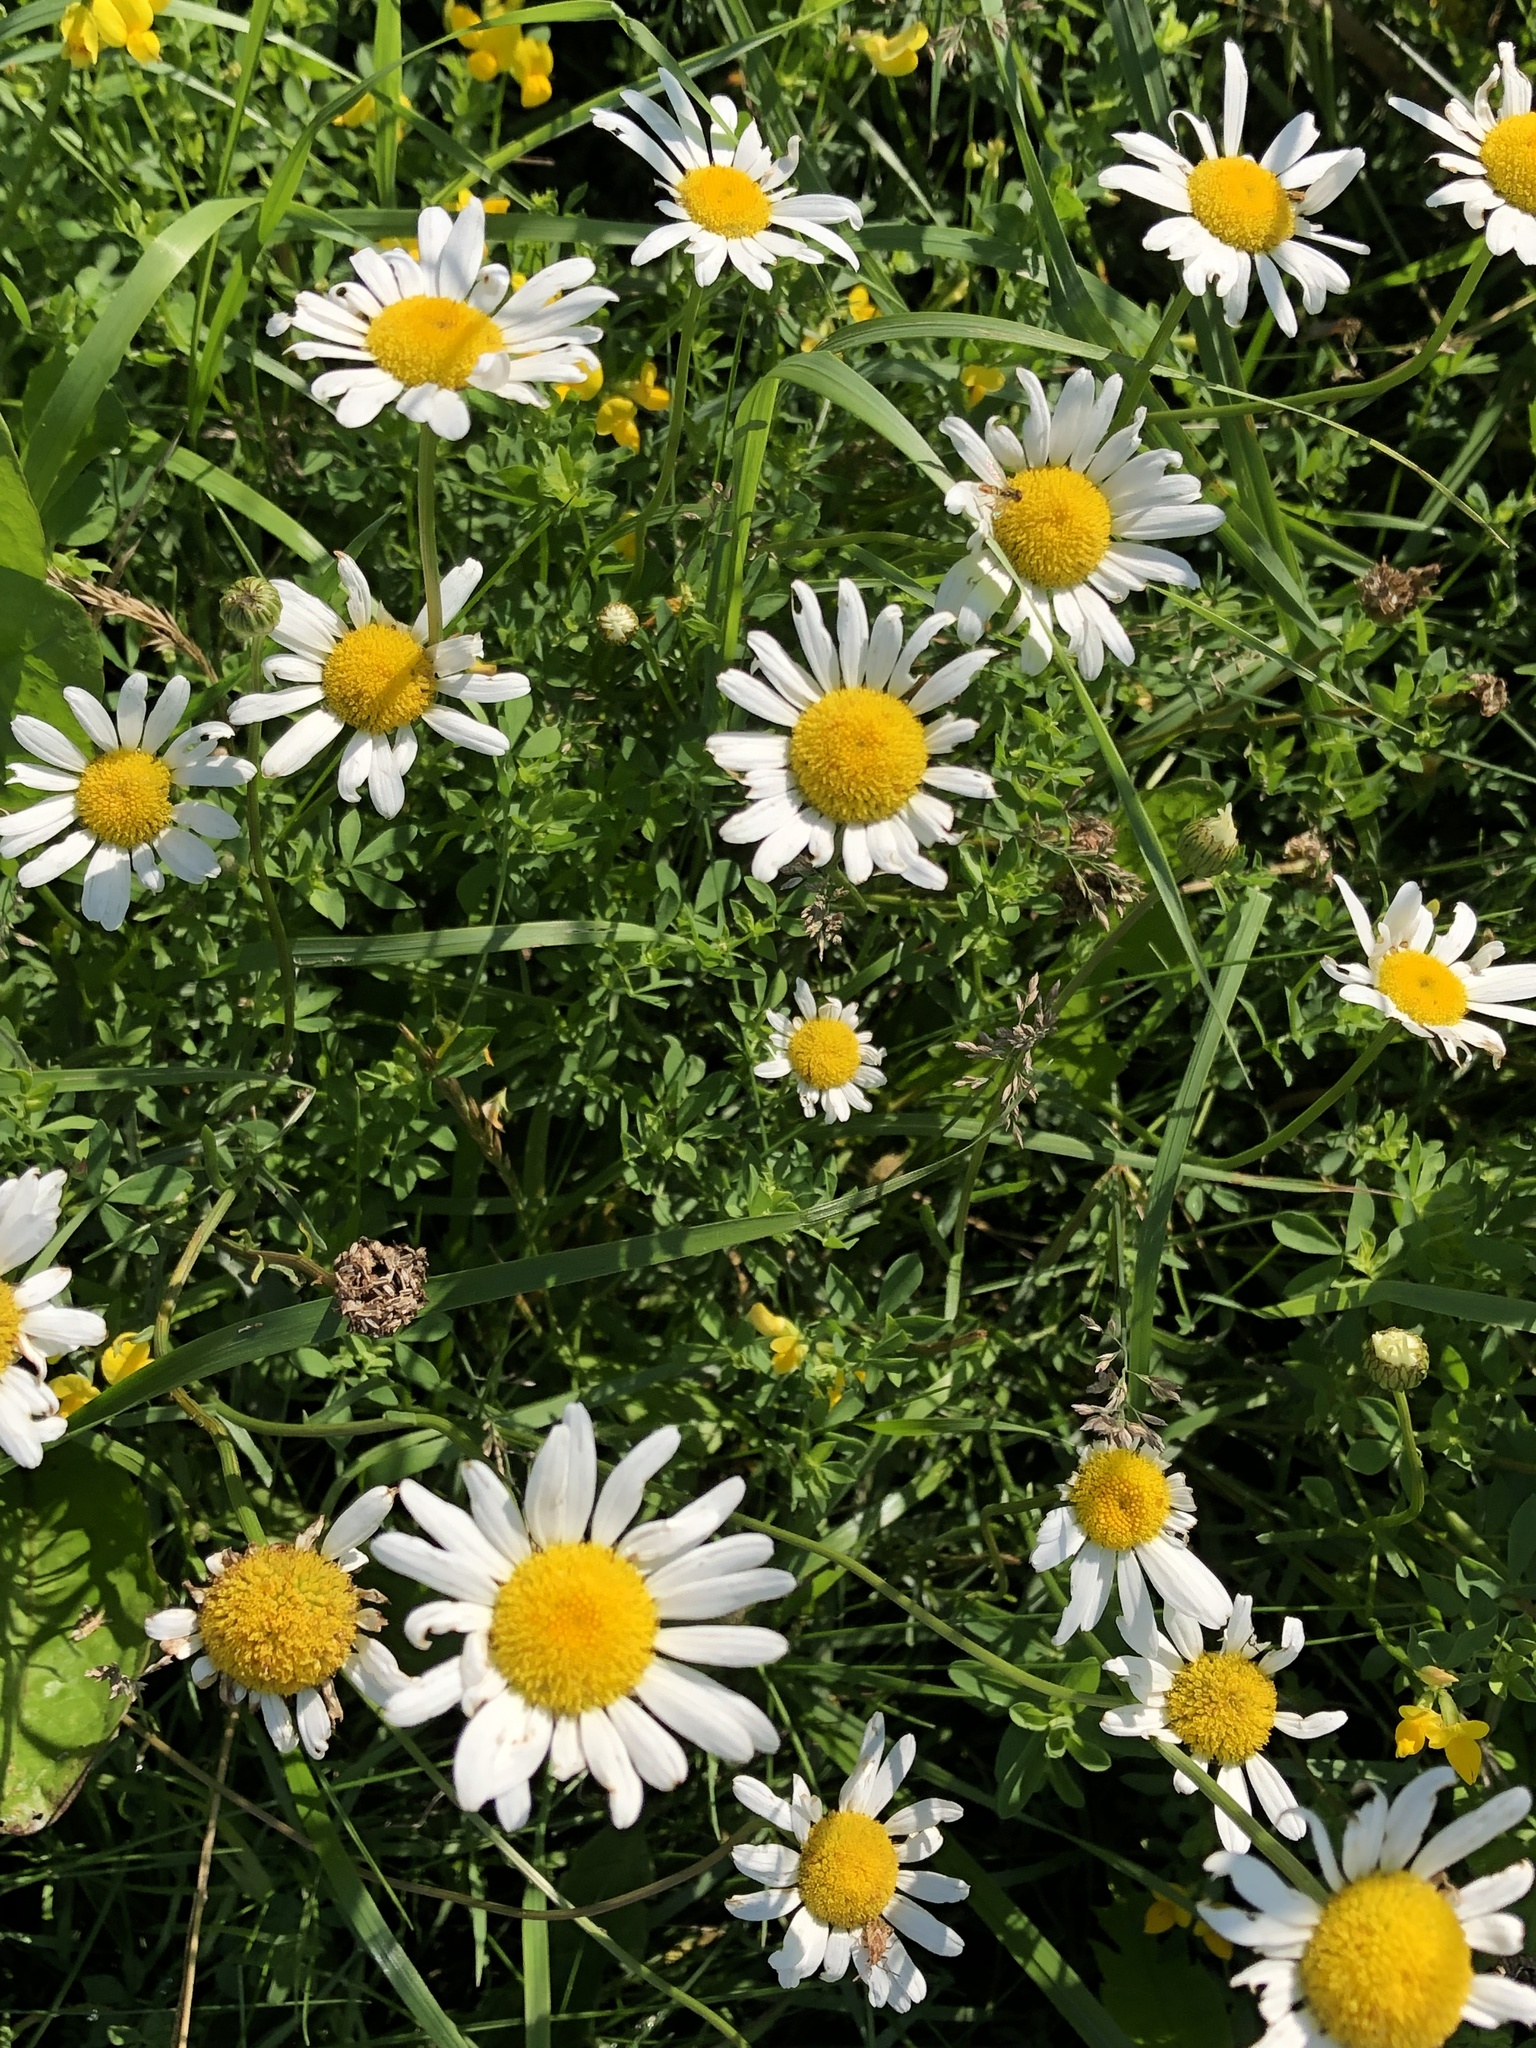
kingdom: Plantae
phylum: Tracheophyta
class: Magnoliopsida
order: Asterales
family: Asteraceae
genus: Leucanthemum
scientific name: Leucanthemum vulgare
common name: Oxeye daisy
